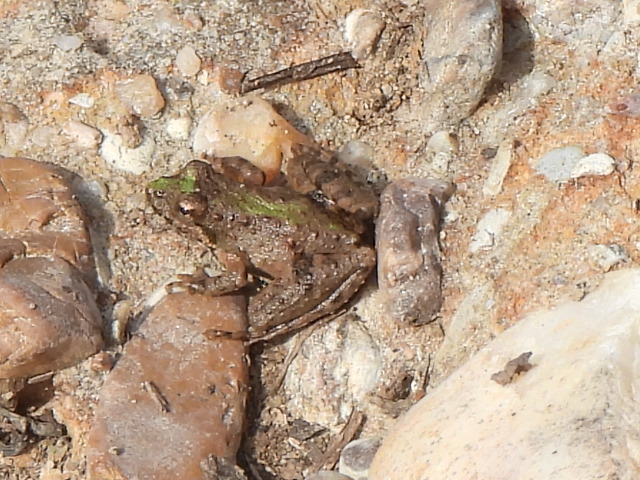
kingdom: Animalia
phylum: Chordata
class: Amphibia
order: Anura
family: Hylidae
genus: Acris
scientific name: Acris blanchardi
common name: Blanchard's cricket frog
